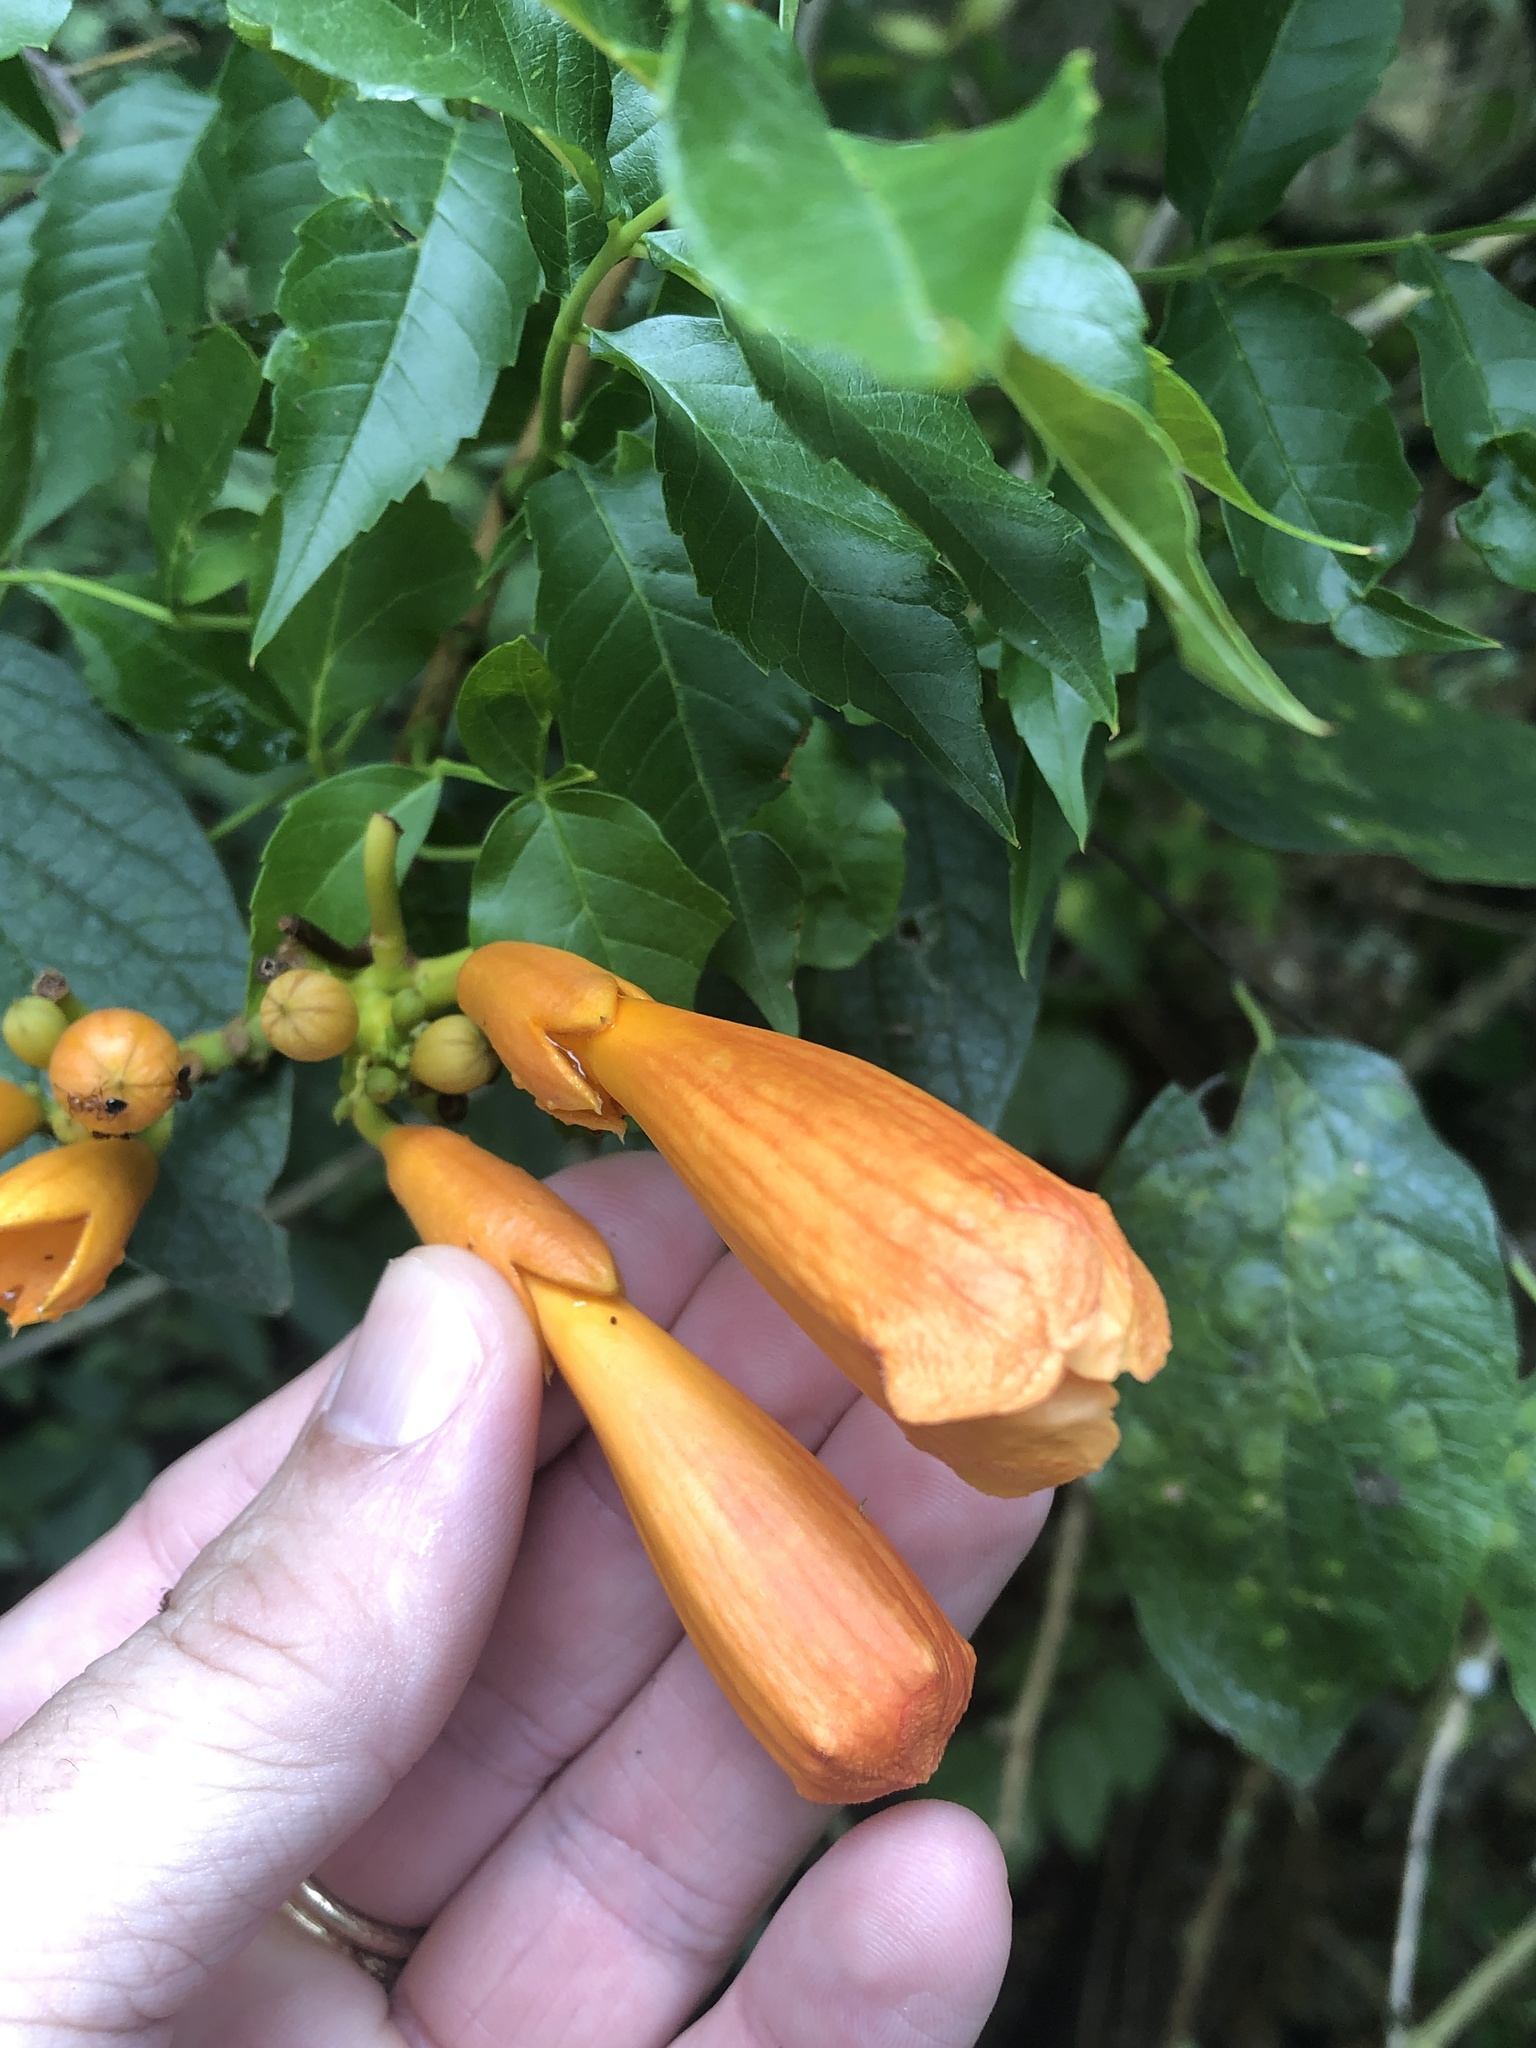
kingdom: Plantae
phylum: Tracheophyta
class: Magnoliopsida
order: Lamiales
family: Bignoniaceae
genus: Campsis
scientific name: Campsis radicans
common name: Trumpet-creeper
